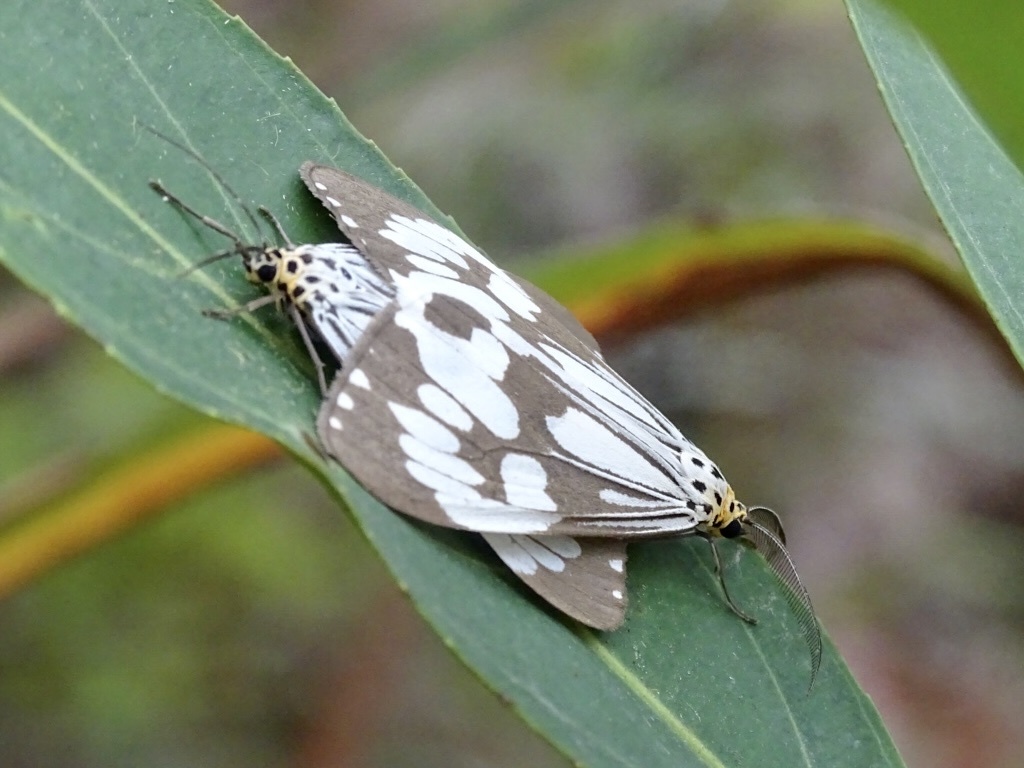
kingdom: Animalia
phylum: Arthropoda
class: Insecta
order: Lepidoptera
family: Erebidae
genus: Nyctemera
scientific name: Nyctemera adversata
